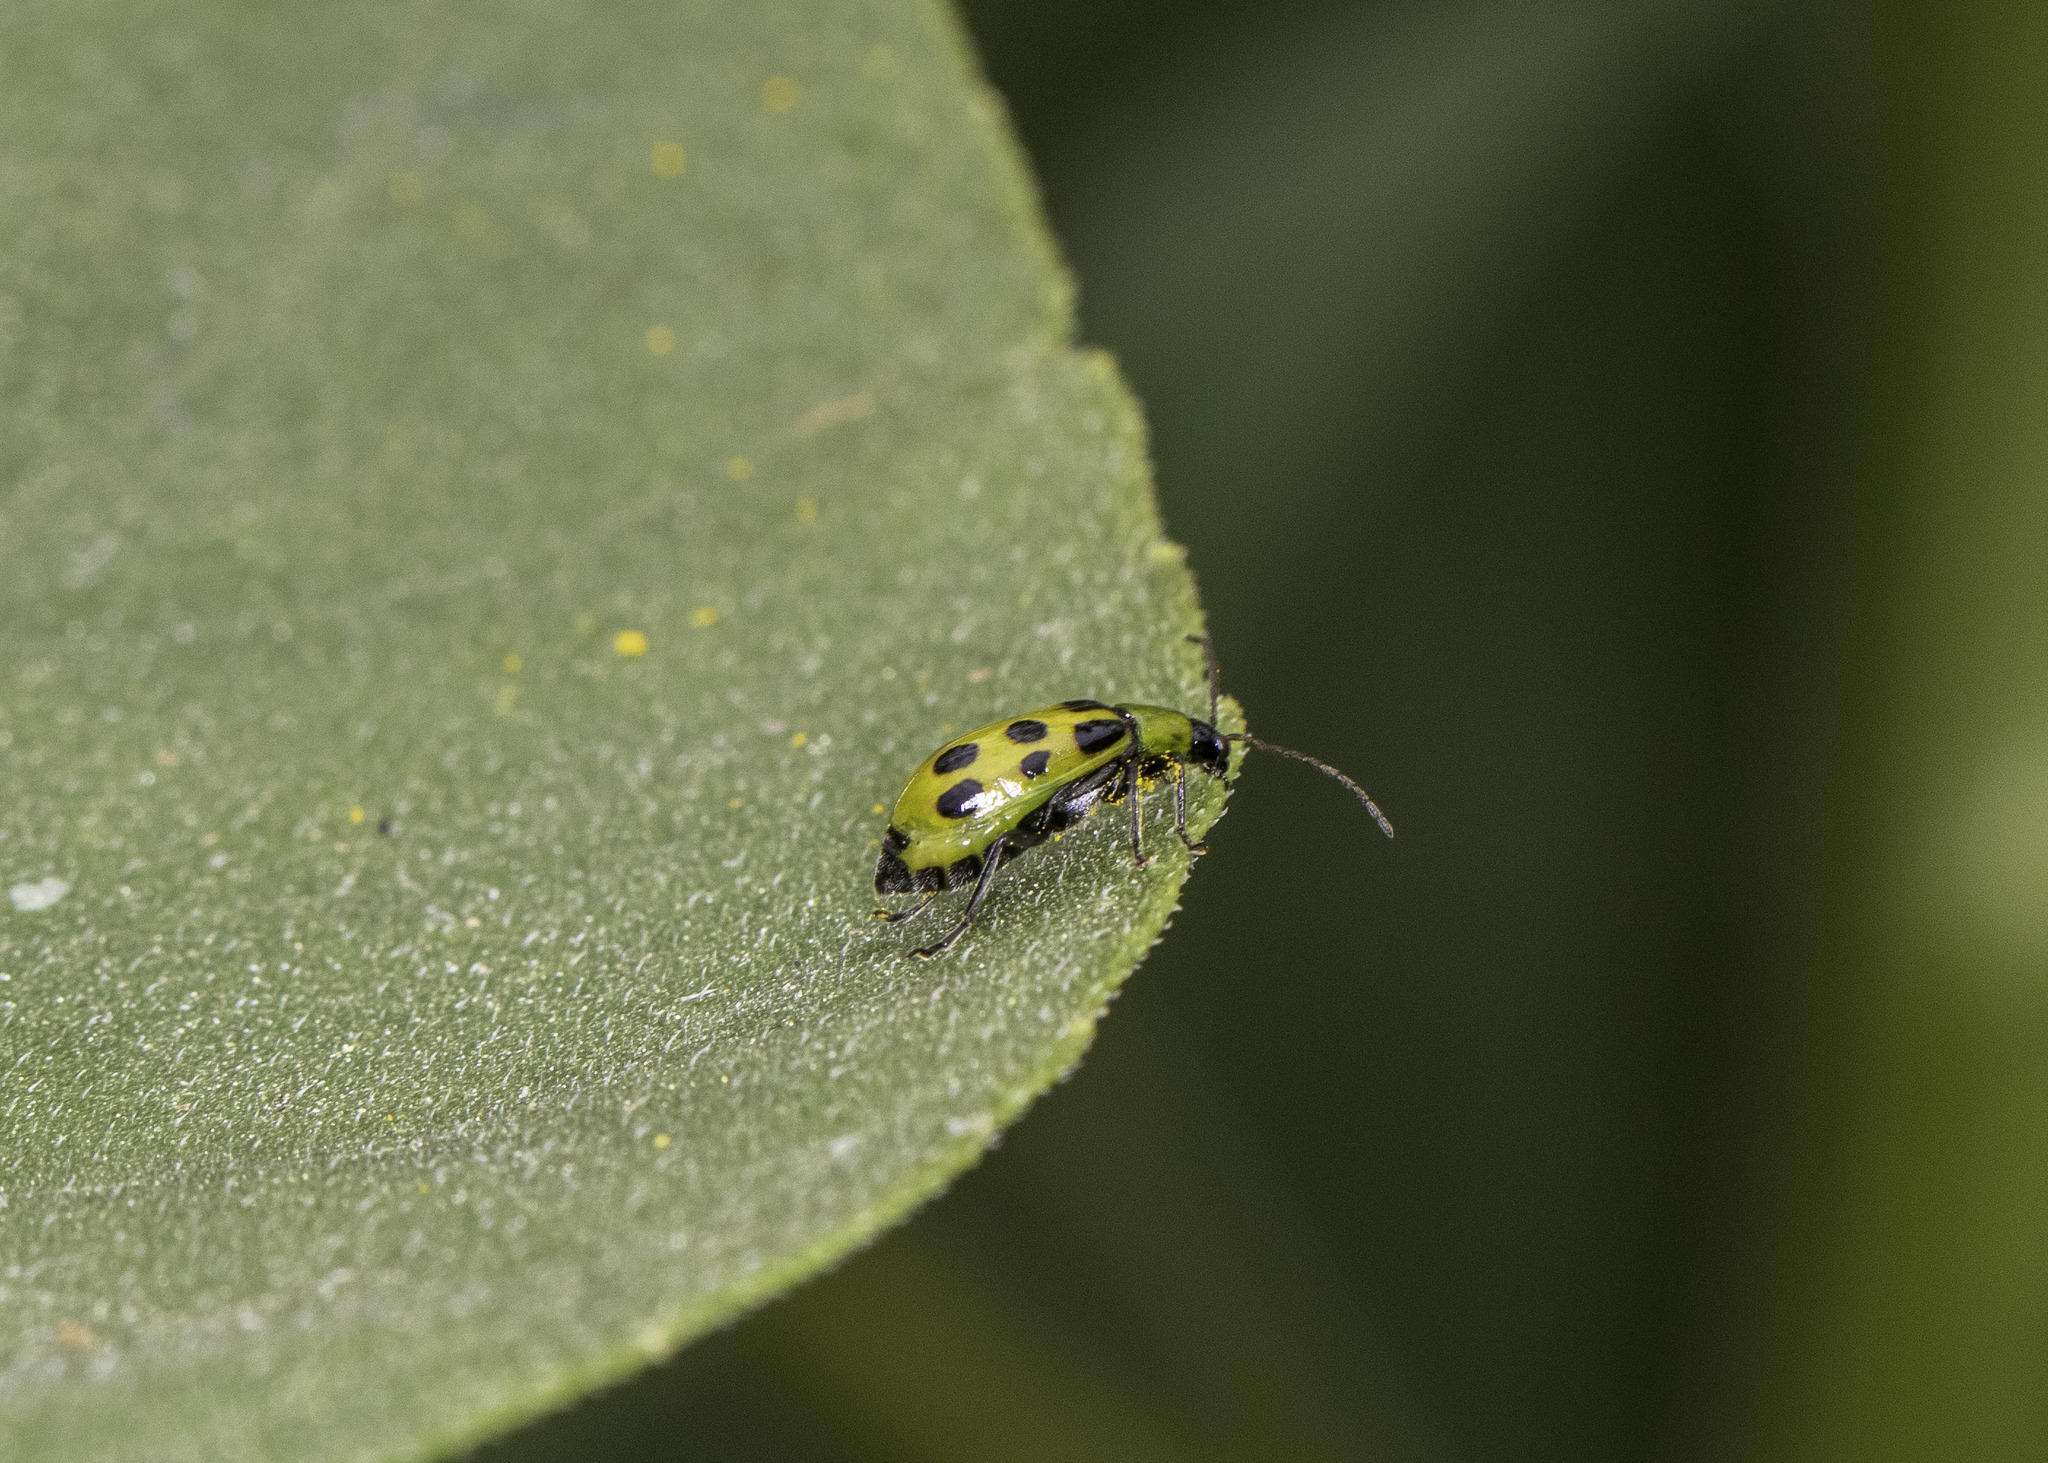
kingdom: Animalia
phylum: Arthropoda
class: Insecta
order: Coleoptera
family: Chrysomelidae
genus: Diabrotica
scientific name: Diabrotica undecimpunctata
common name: Spotted cucumber beetle
